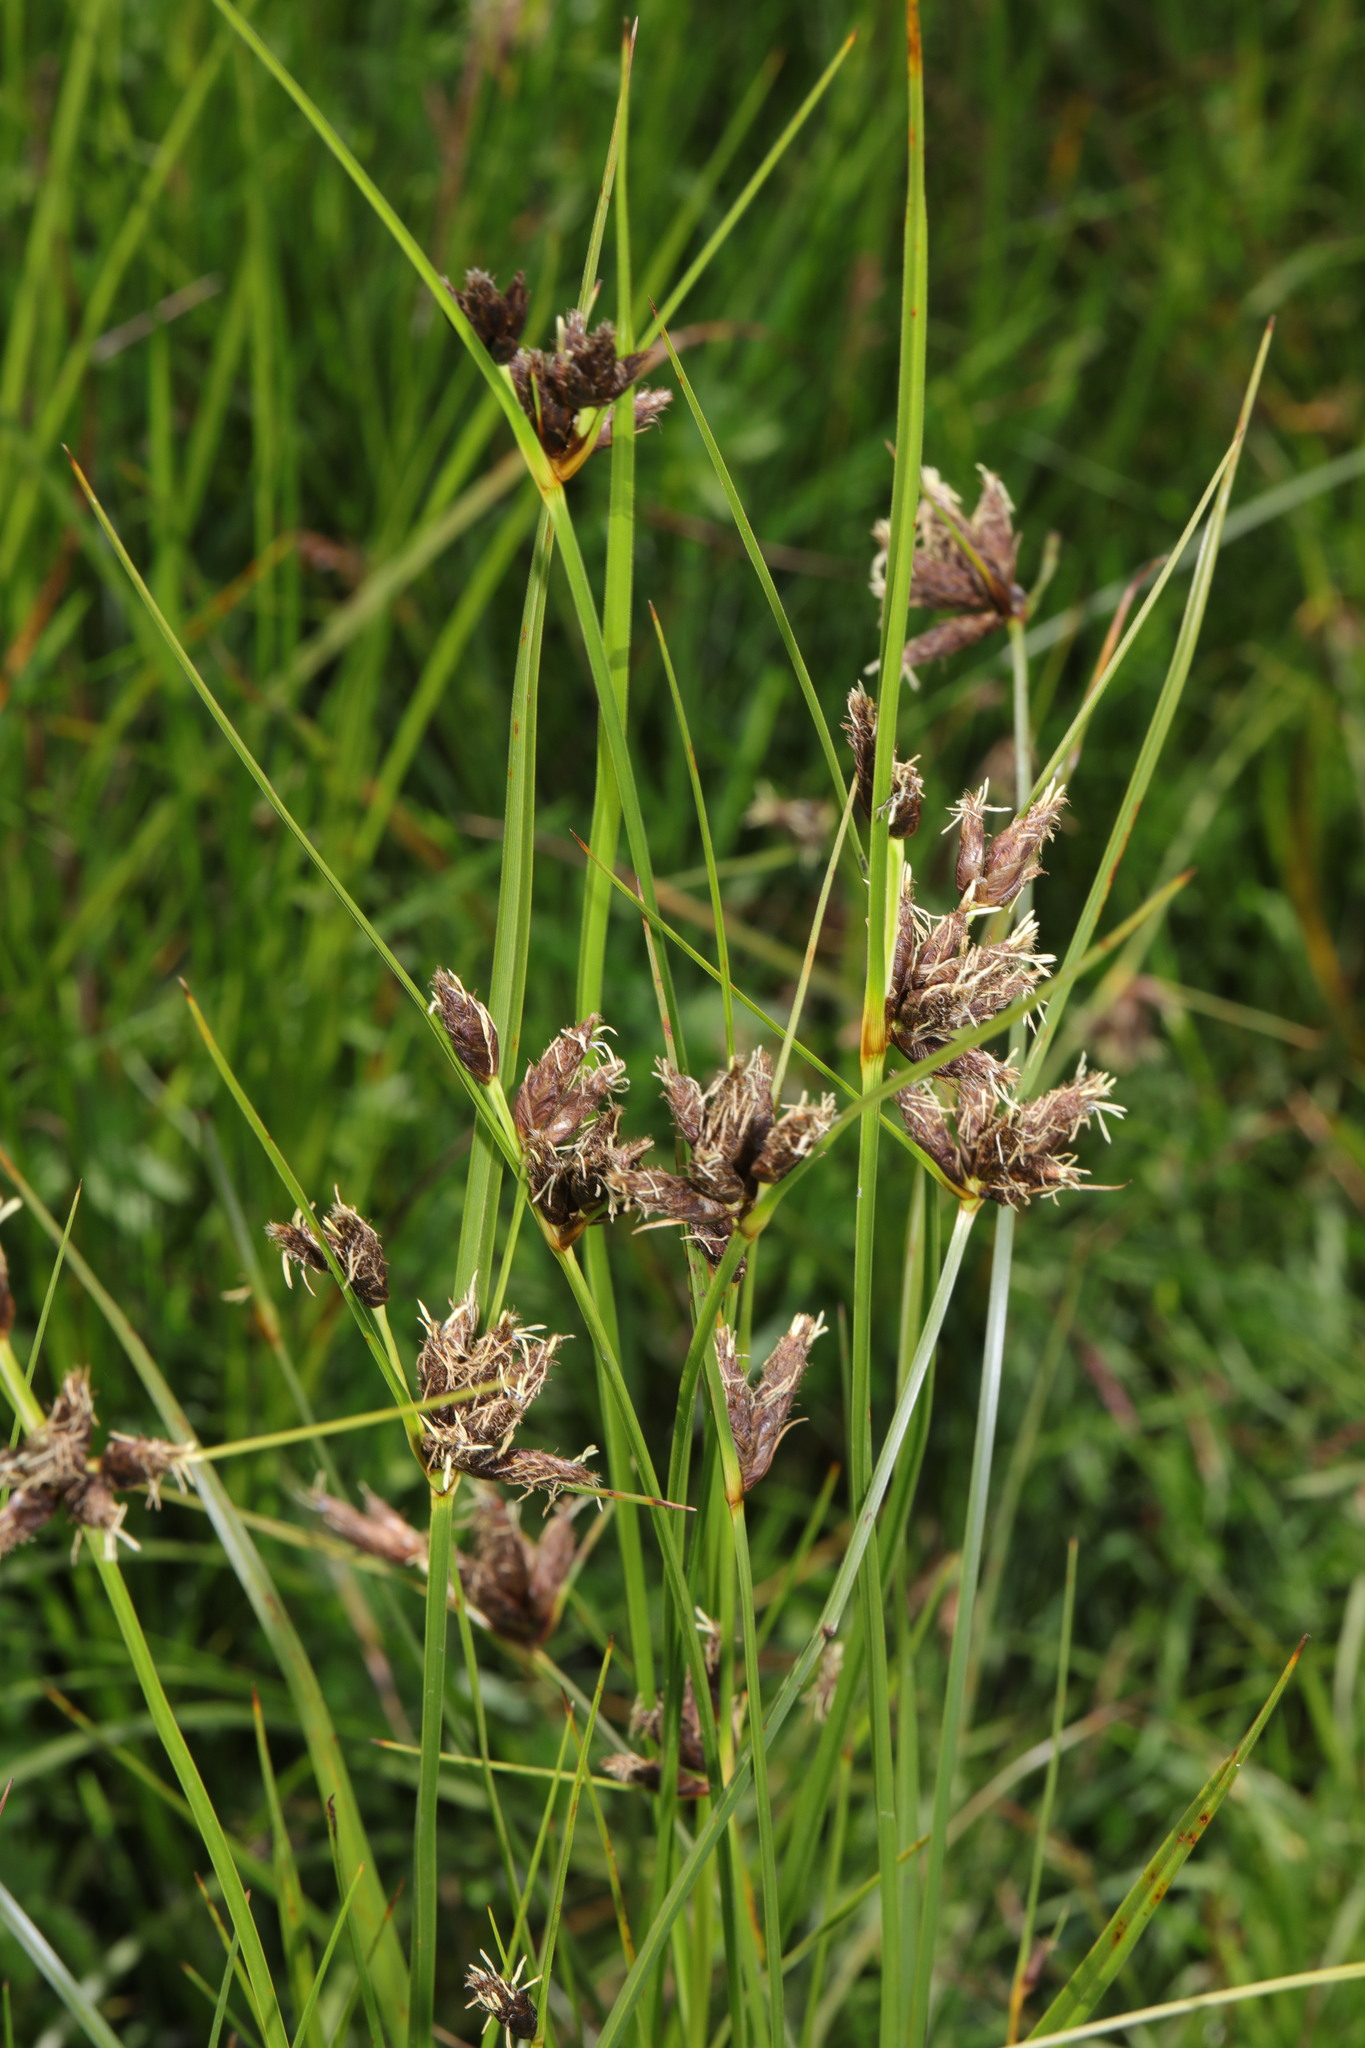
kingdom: Plantae
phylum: Tracheophyta
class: Liliopsida
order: Poales
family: Cyperaceae
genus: Bolboschoenus
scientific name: Bolboschoenus maritimus
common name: Sea club-rush
